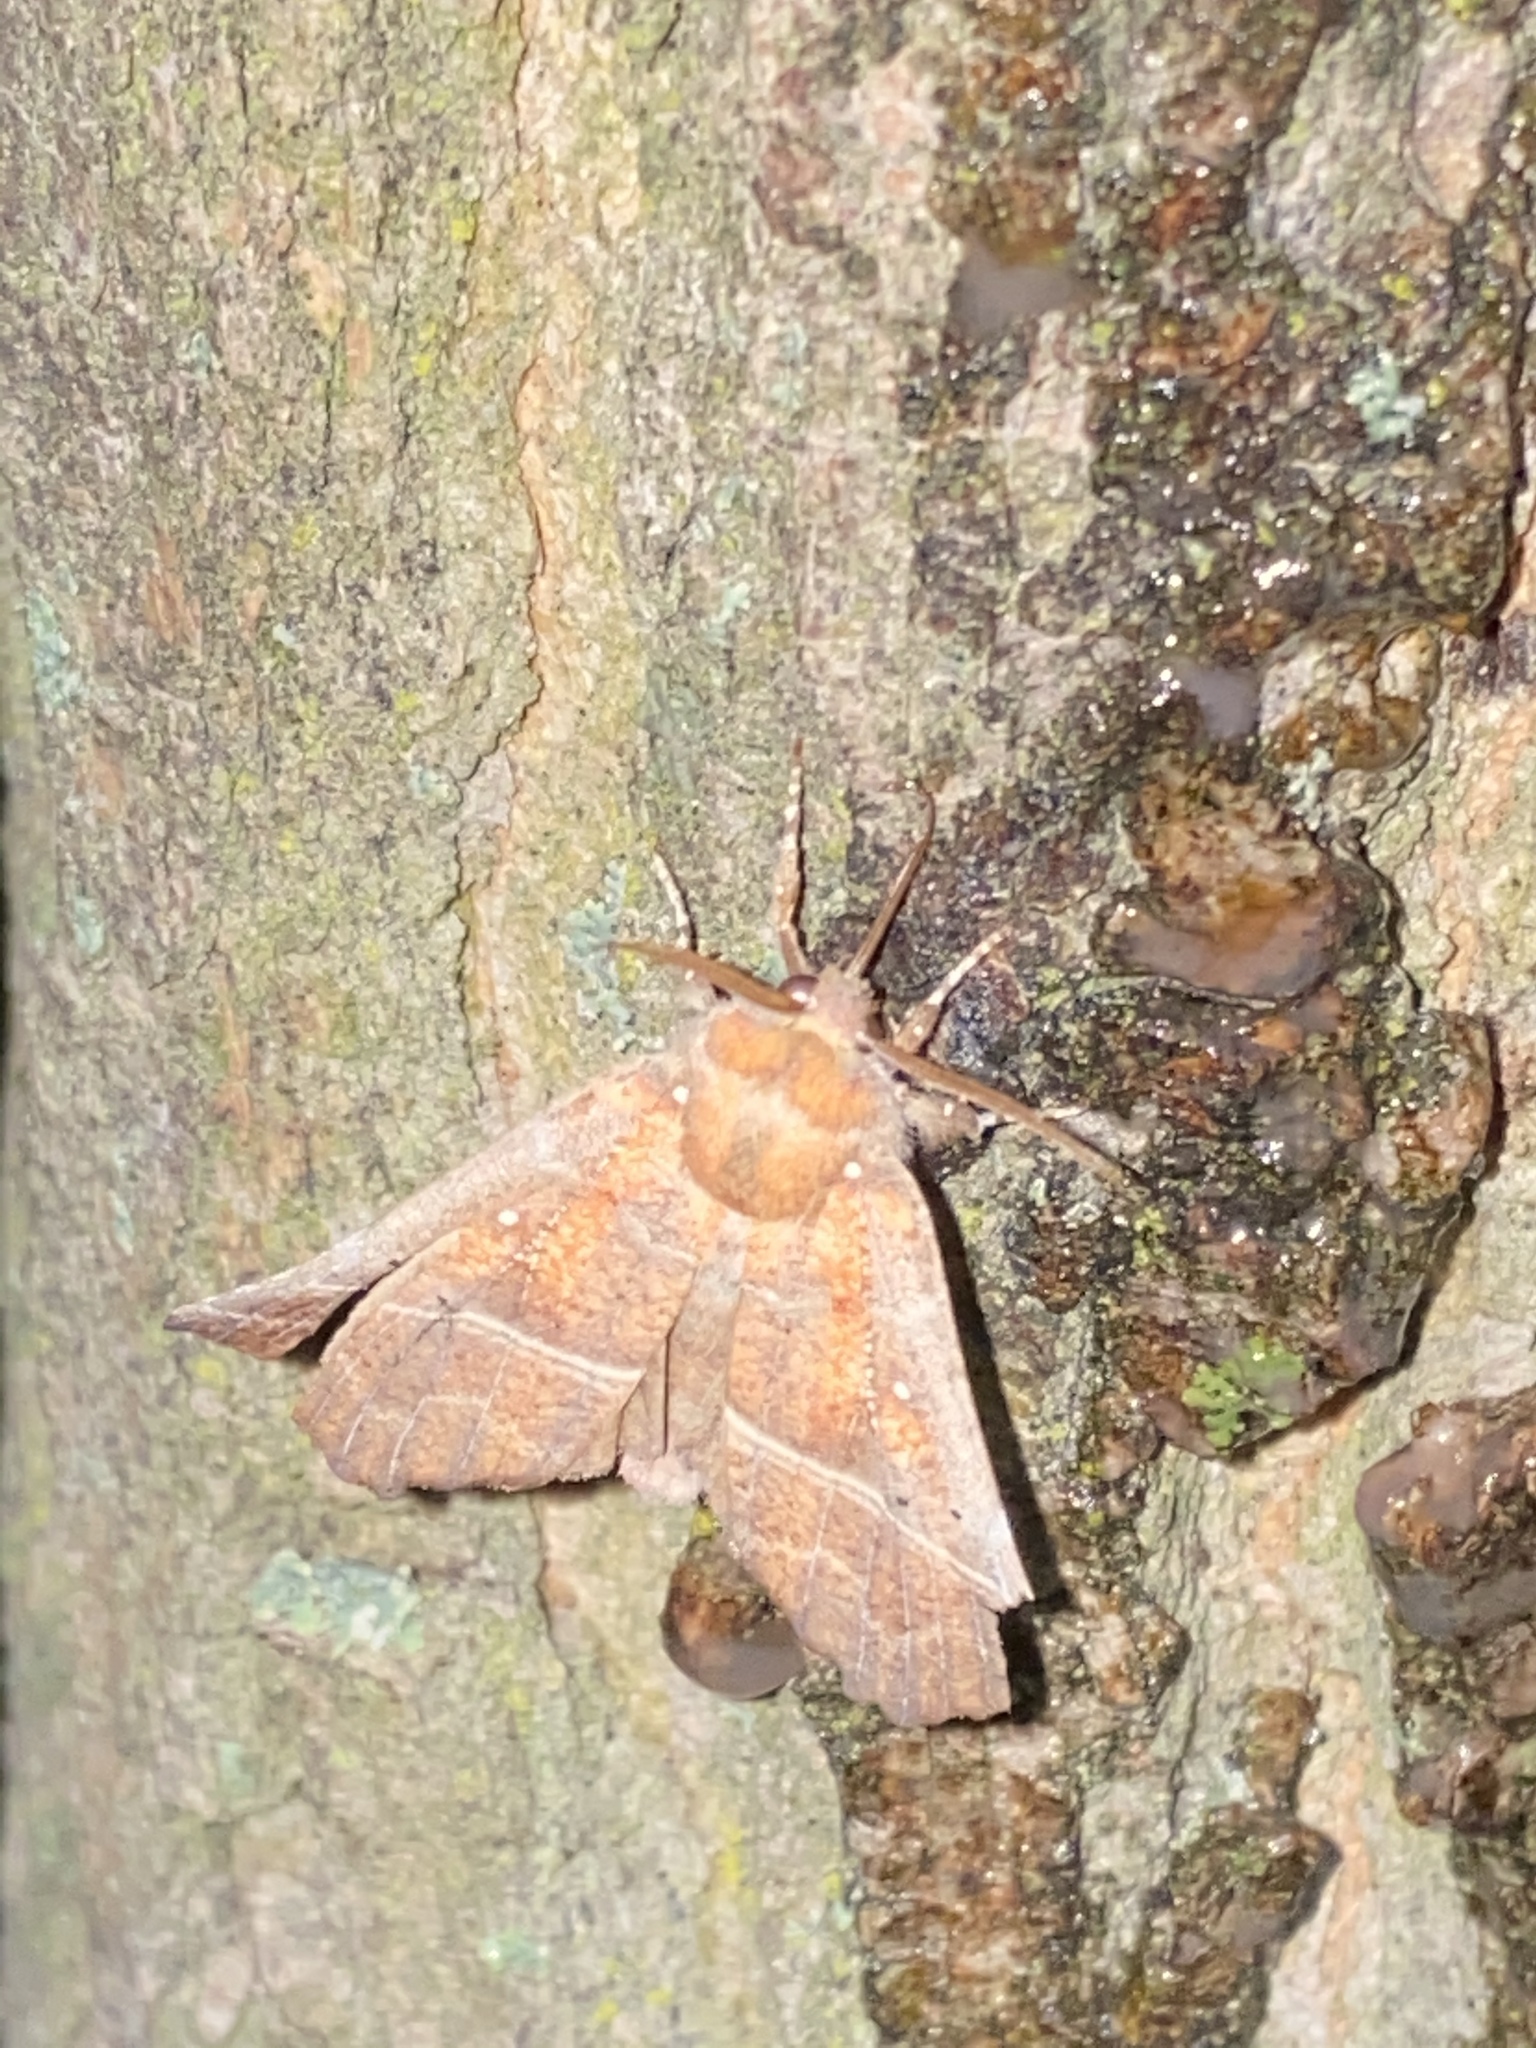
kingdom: Animalia
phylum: Arthropoda
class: Insecta
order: Lepidoptera
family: Erebidae
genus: Scoliopteryx
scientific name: Scoliopteryx libatrix
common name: Herald
